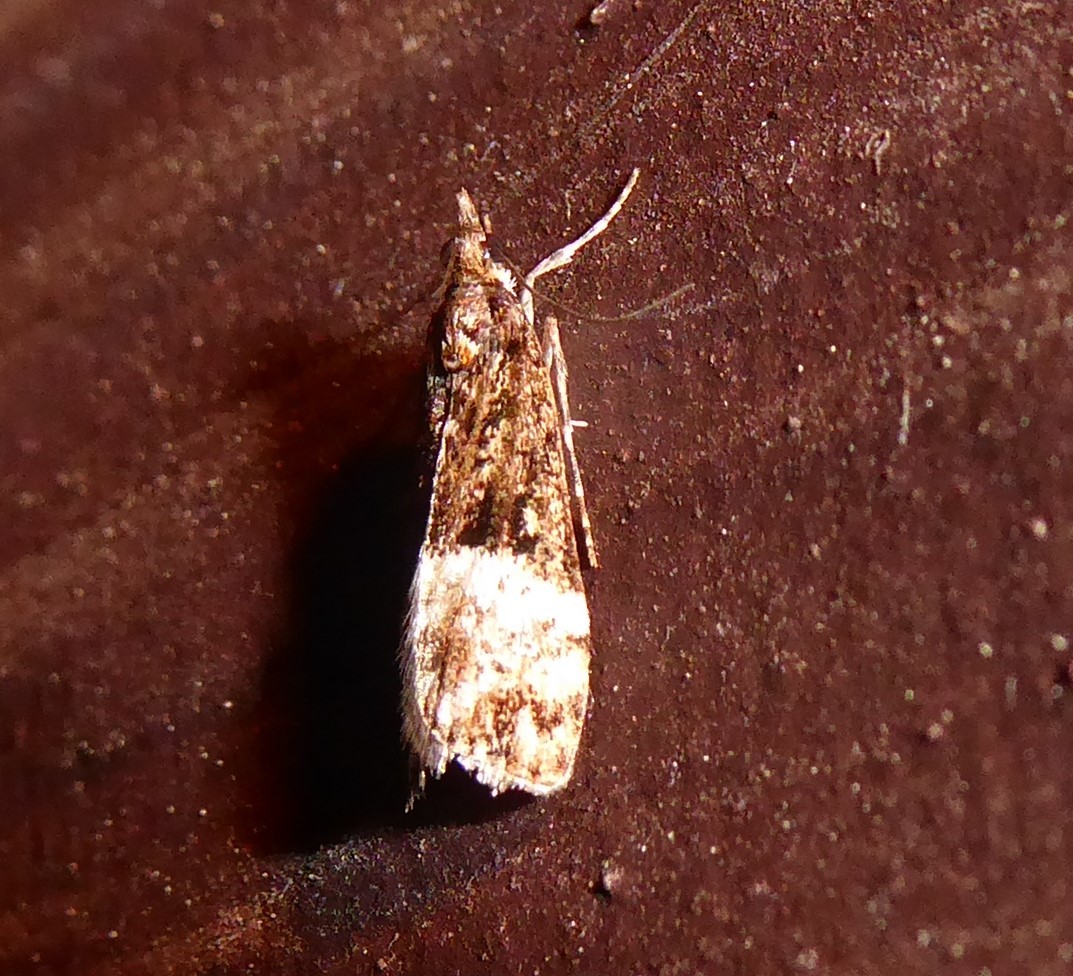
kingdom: Animalia
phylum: Arthropoda
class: Insecta
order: Lepidoptera
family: Crambidae
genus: Scoparia
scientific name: Scoparia minusculalis
